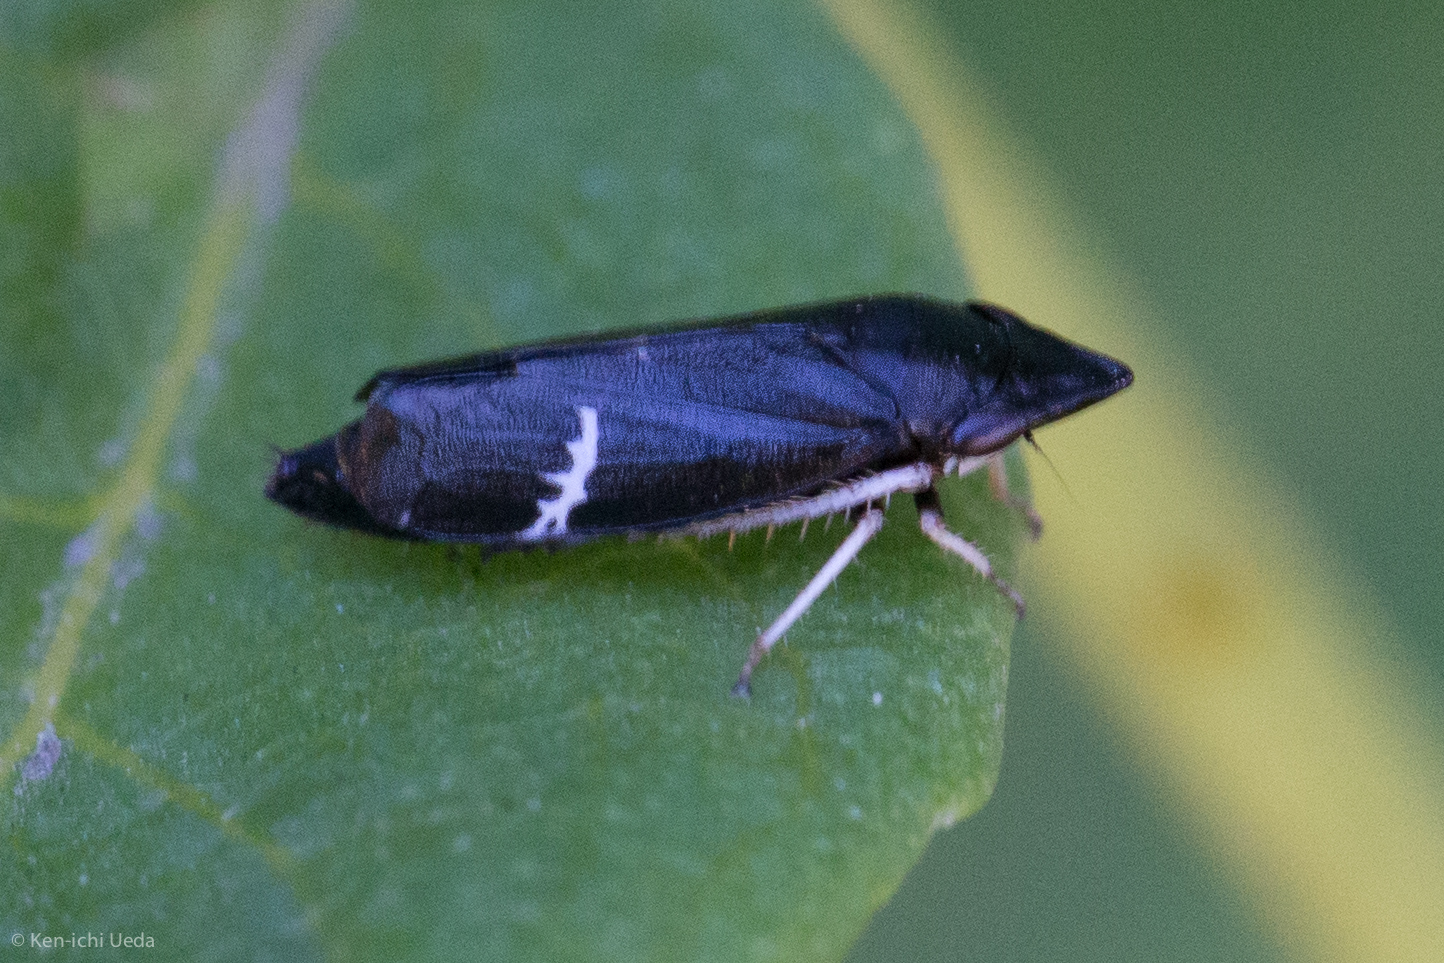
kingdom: Animalia
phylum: Arthropoda
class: Insecta
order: Hemiptera
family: Cicadellidae
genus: Cochlorhinus
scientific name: Cochlorhinus pluto
